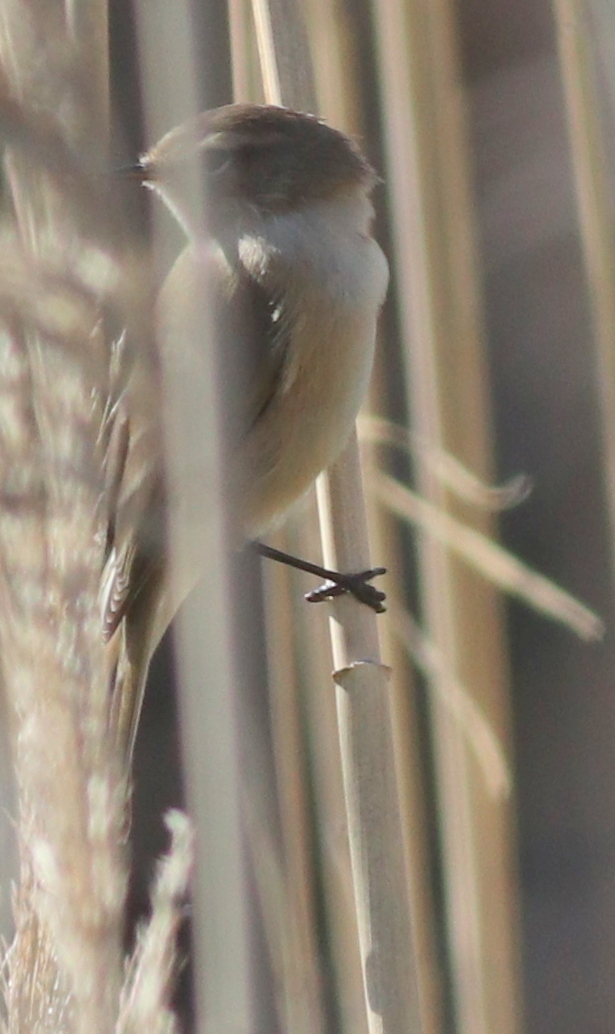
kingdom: Animalia
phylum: Chordata
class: Aves
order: Passeriformes
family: Phylloscopidae
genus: Phylloscopus
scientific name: Phylloscopus sindianus
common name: Mountain chiffchaff
